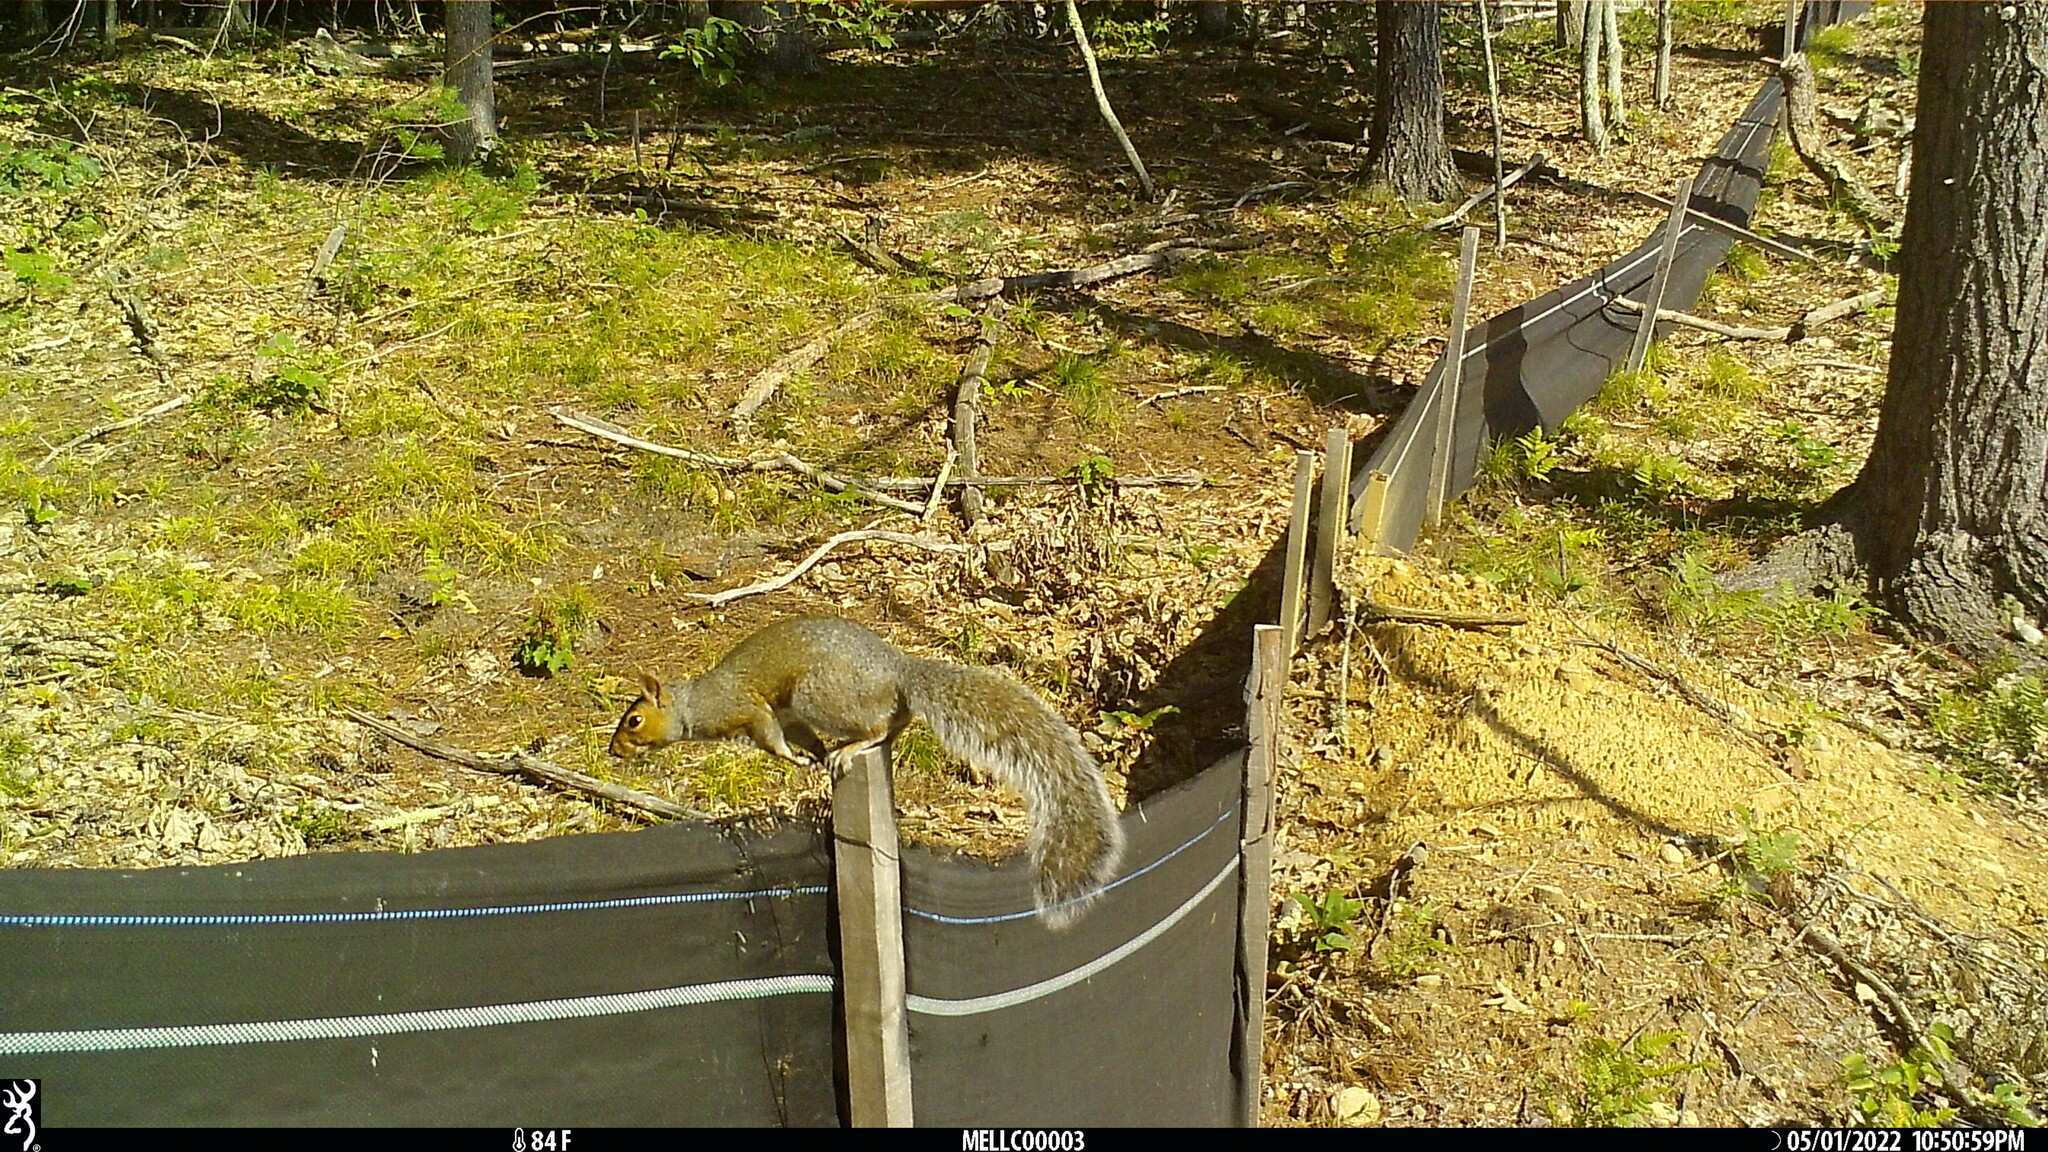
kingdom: Animalia
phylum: Chordata
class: Mammalia
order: Rodentia
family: Sciuridae
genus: Sciurus
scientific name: Sciurus carolinensis
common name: Eastern gray squirrel
